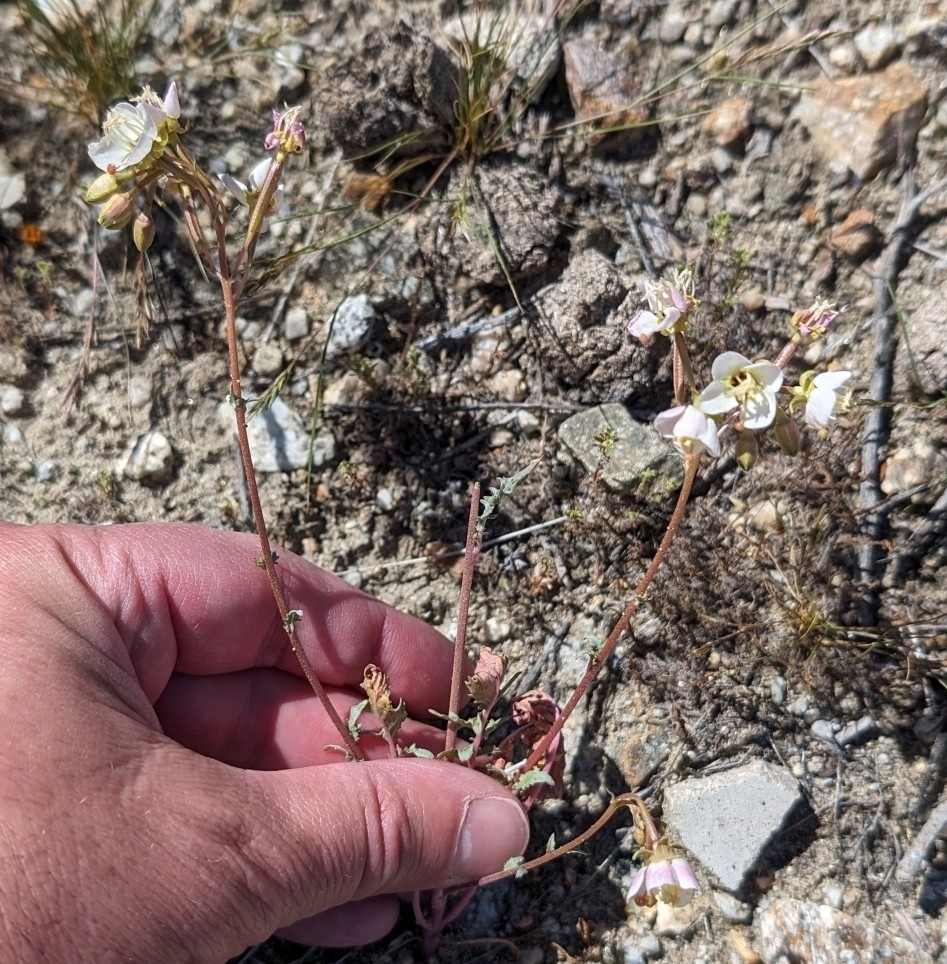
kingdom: Plantae
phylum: Tracheophyta
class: Magnoliopsida
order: Myrtales
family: Onagraceae
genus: Chylismia
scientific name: Chylismia claviformis
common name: Browneyes
